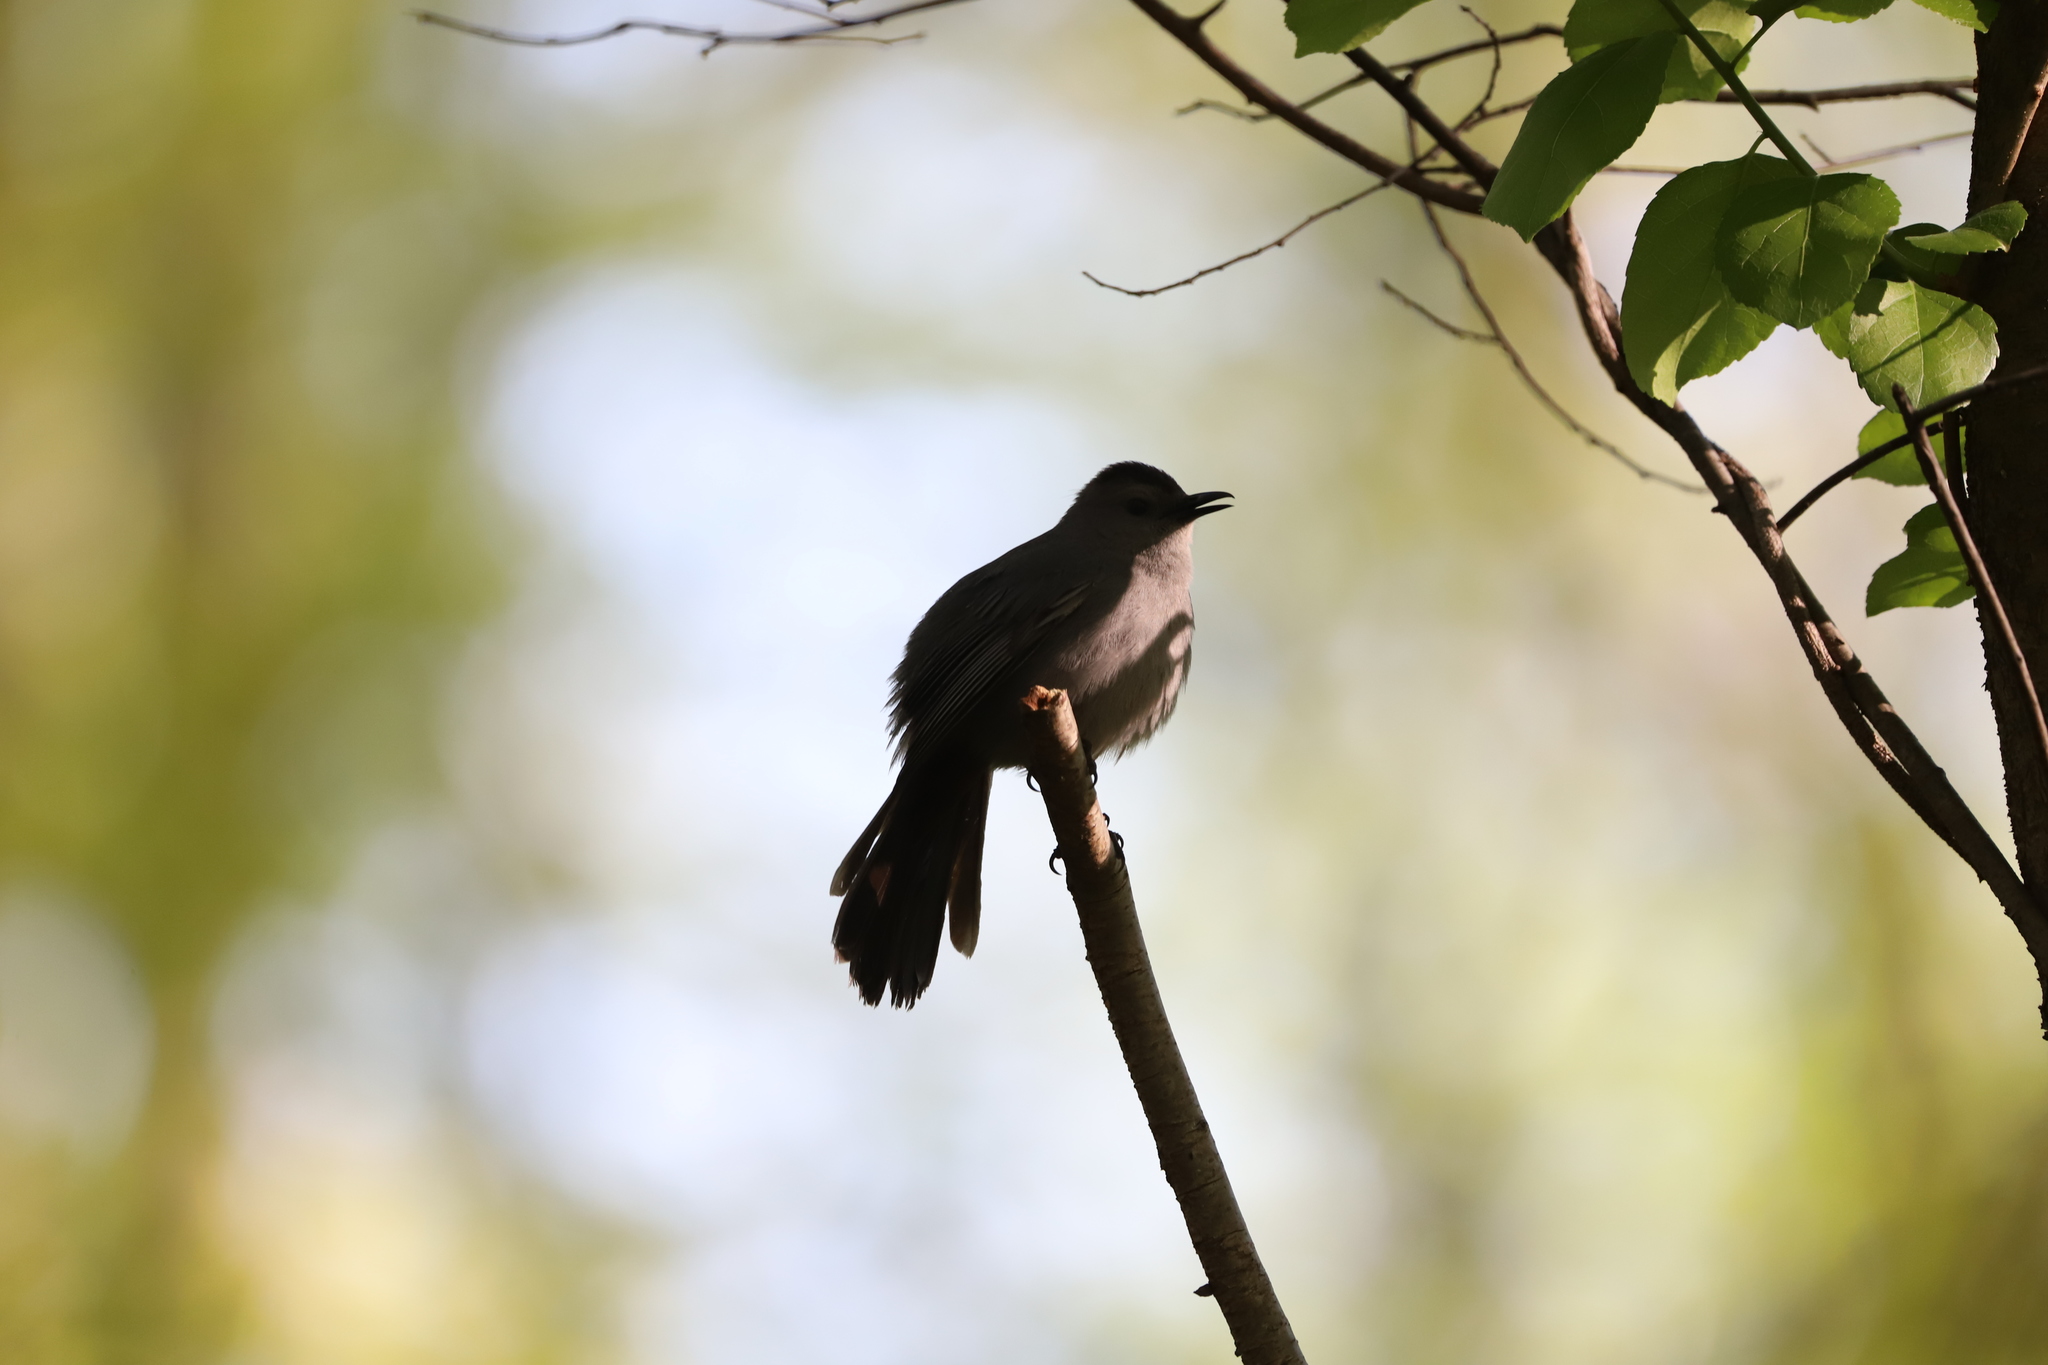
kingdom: Animalia
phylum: Chordata
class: Aves
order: Passeriformes
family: Mimidae
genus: Dumetella
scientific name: Dumetella carolinensis
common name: Gray catbird
